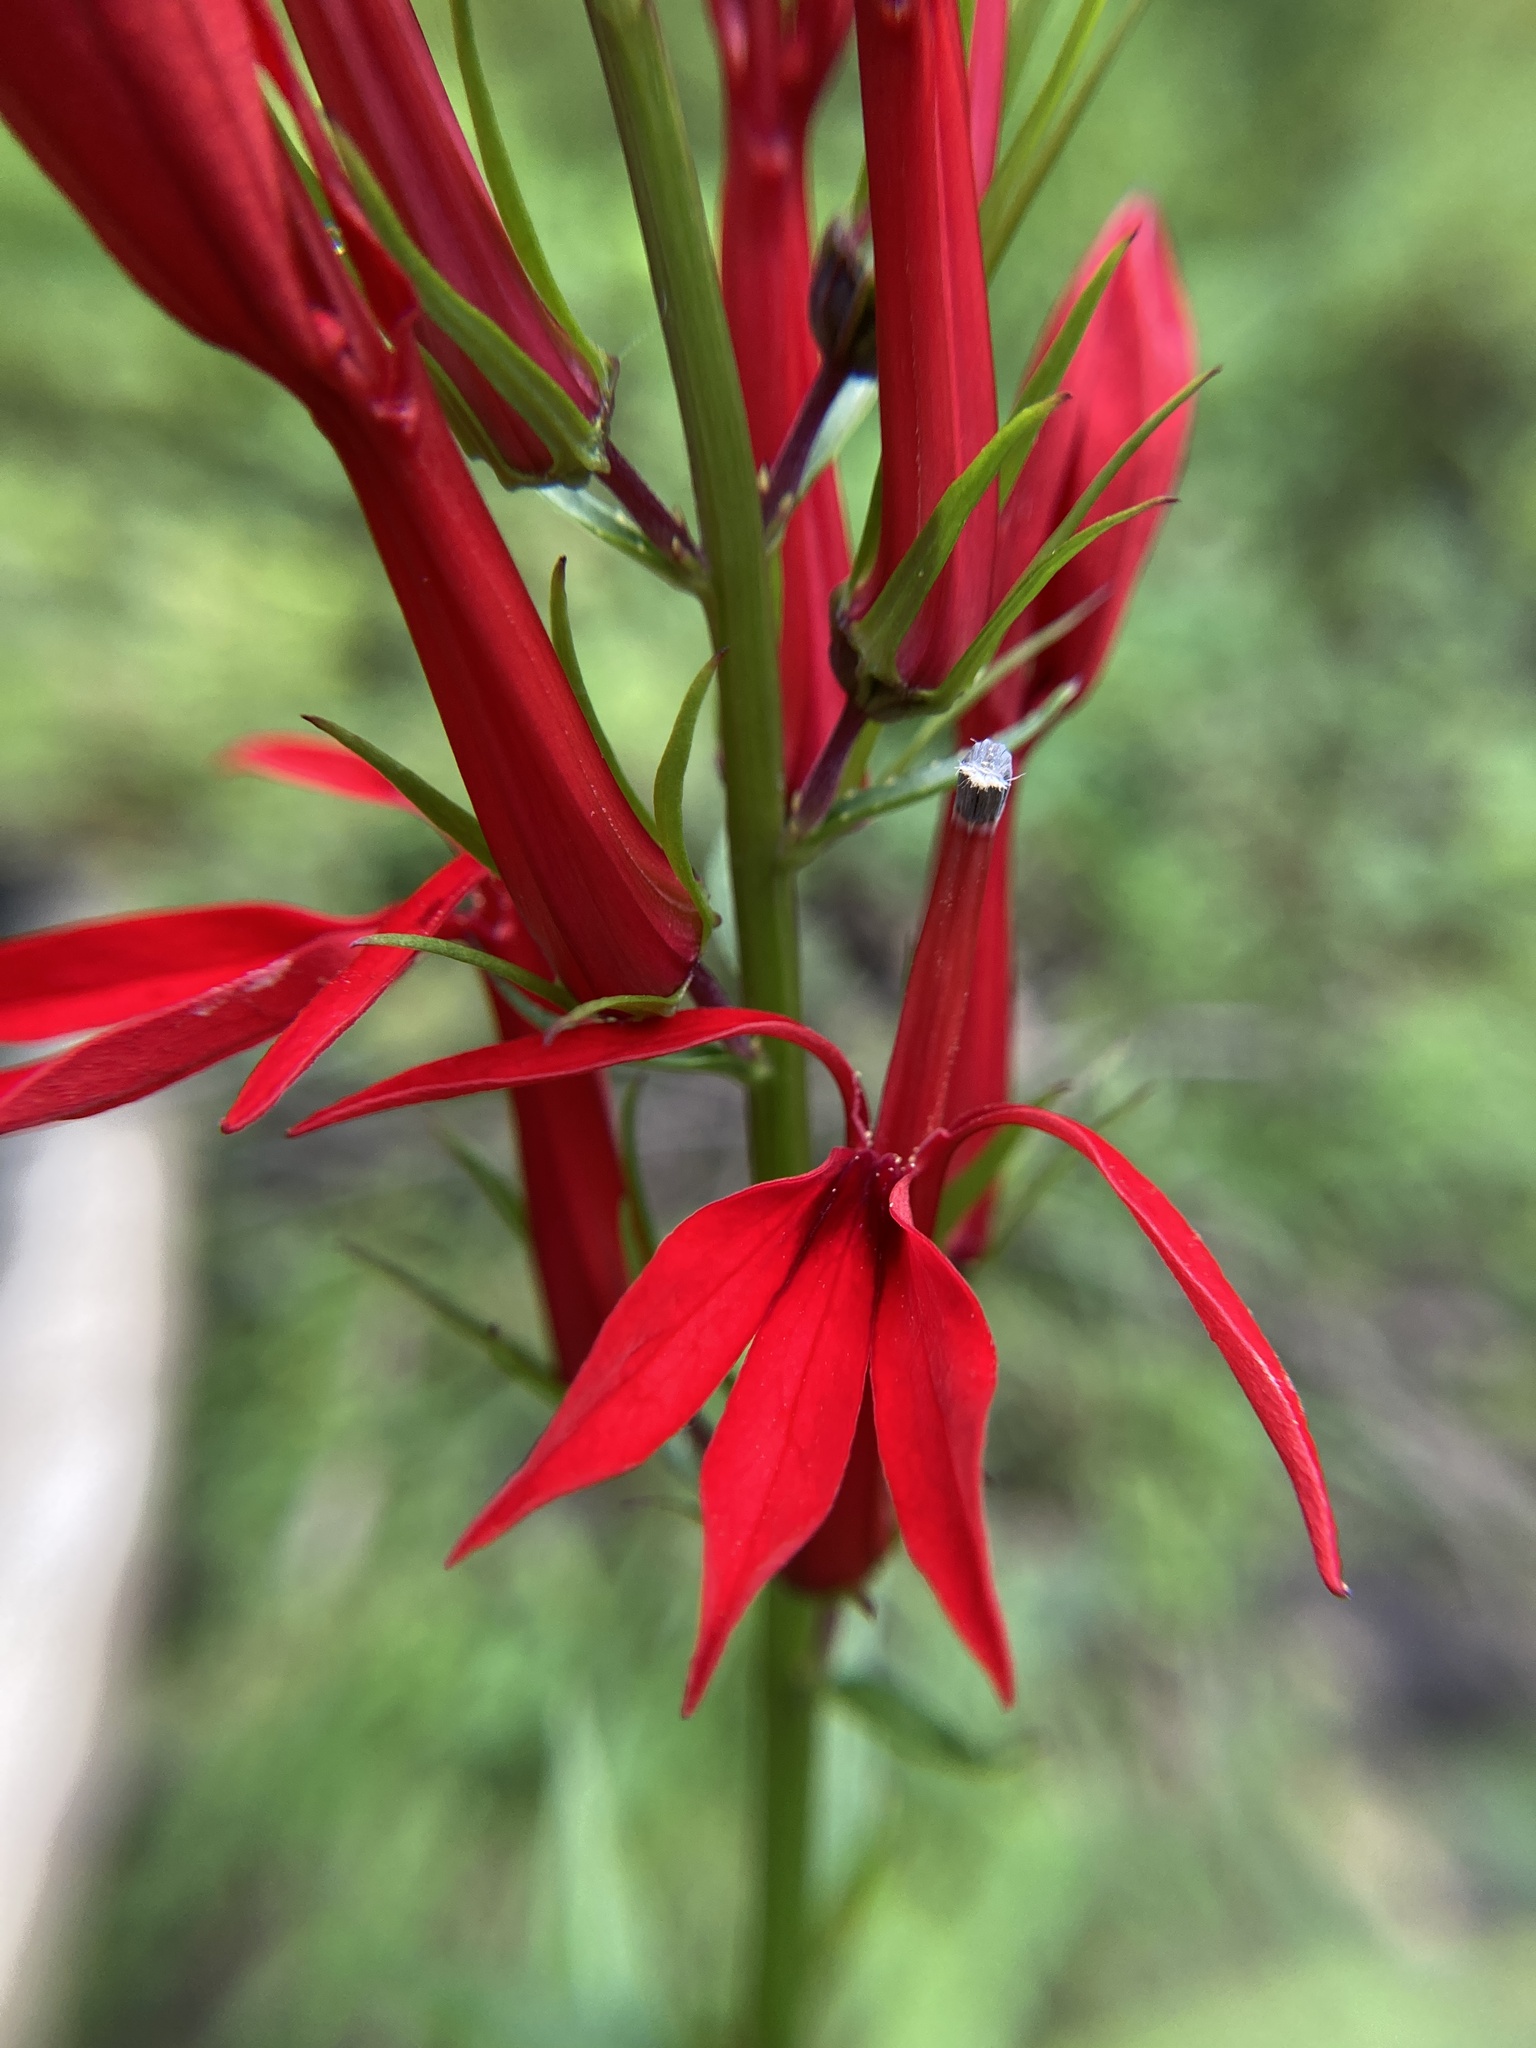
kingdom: Plantae
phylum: Tracheophyta
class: Magnoliopsida
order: Asterales
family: Campanulaceae
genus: Lobelia
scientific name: Lobelia cardinalis
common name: Cardinal flower
